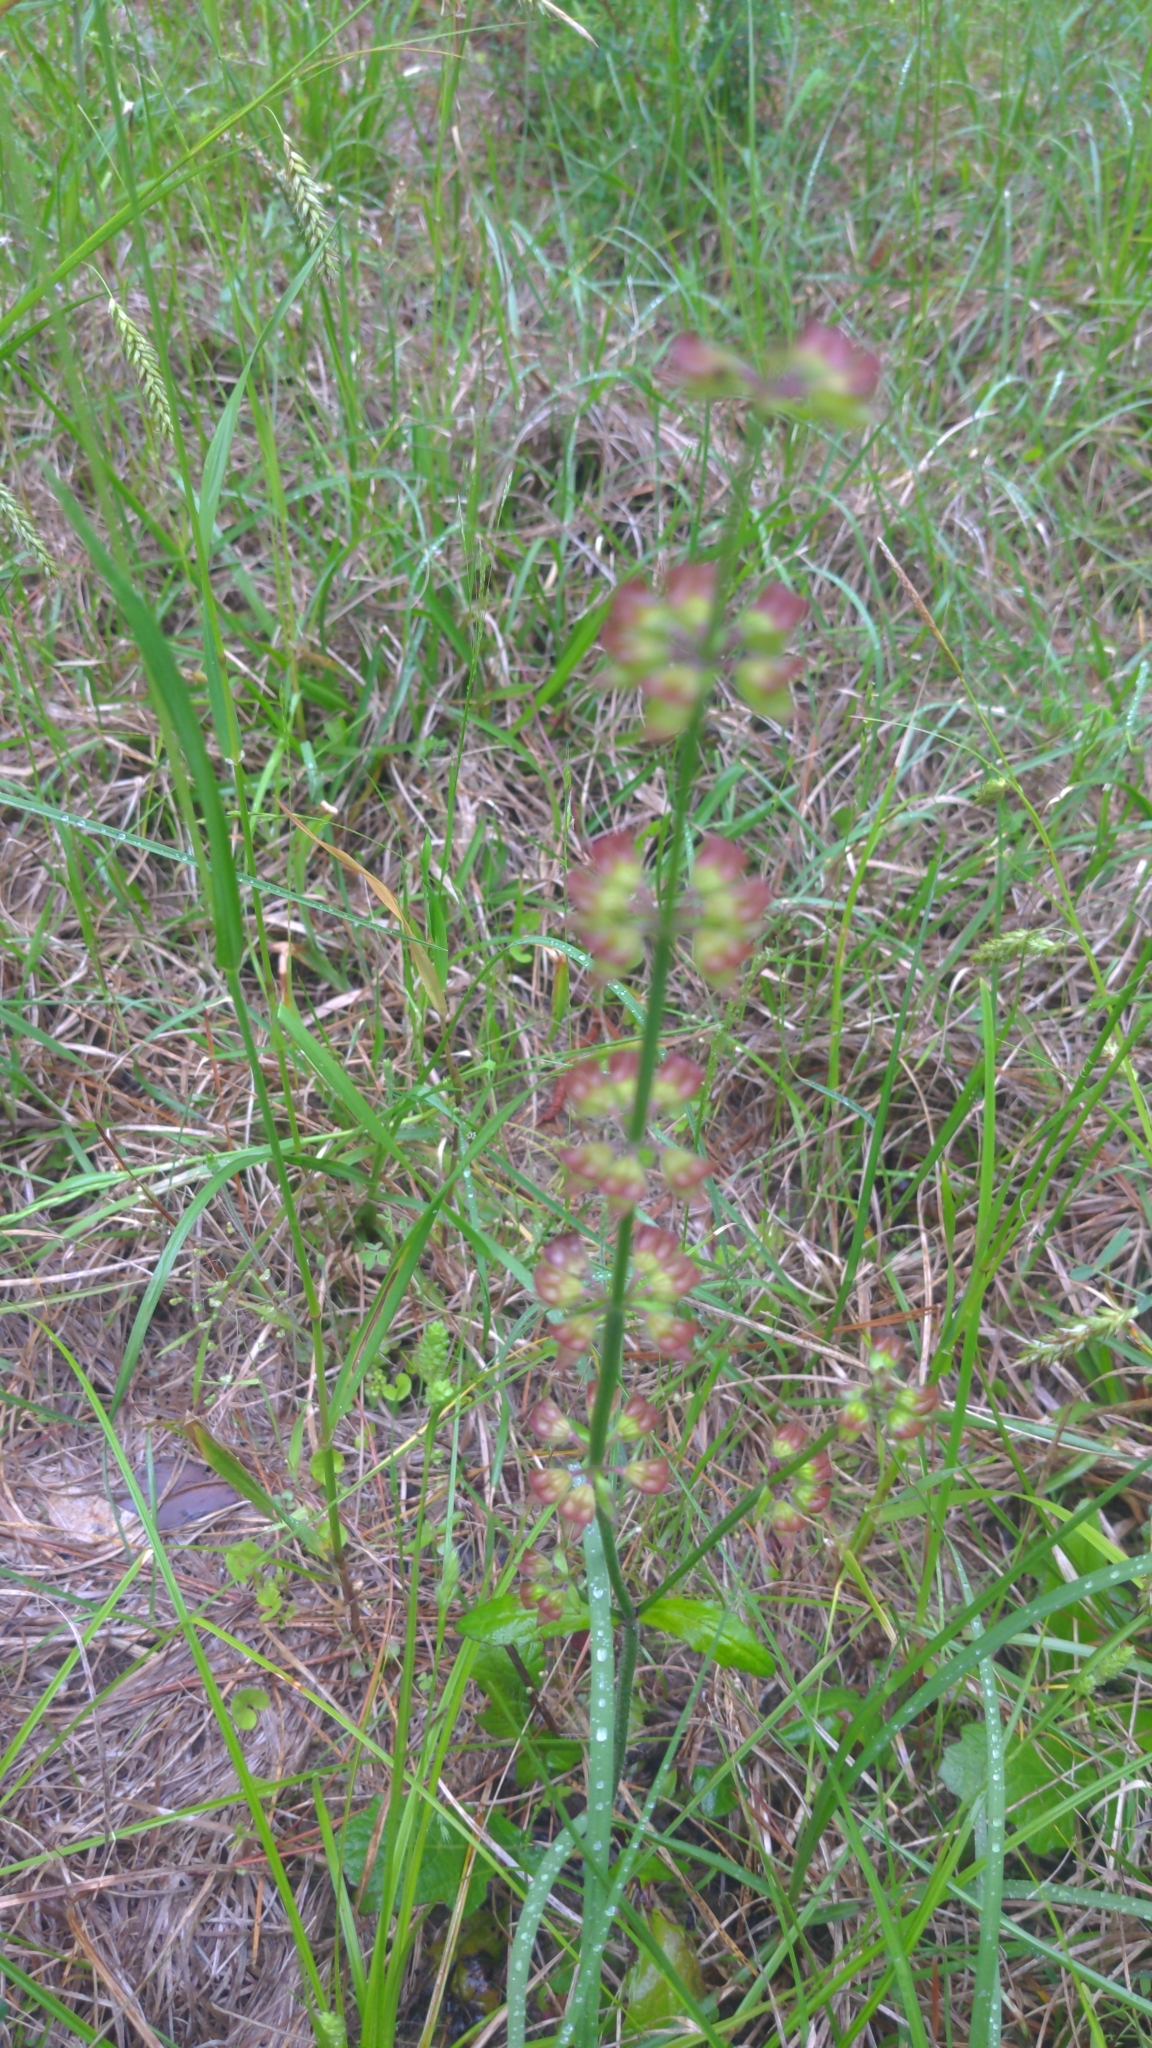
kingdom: Plantae
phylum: Tracheophyta
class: Magnoliopsida
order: Lamiales
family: Lamiaceae
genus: Salvia
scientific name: Salvia lyrata
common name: Cancerweed
